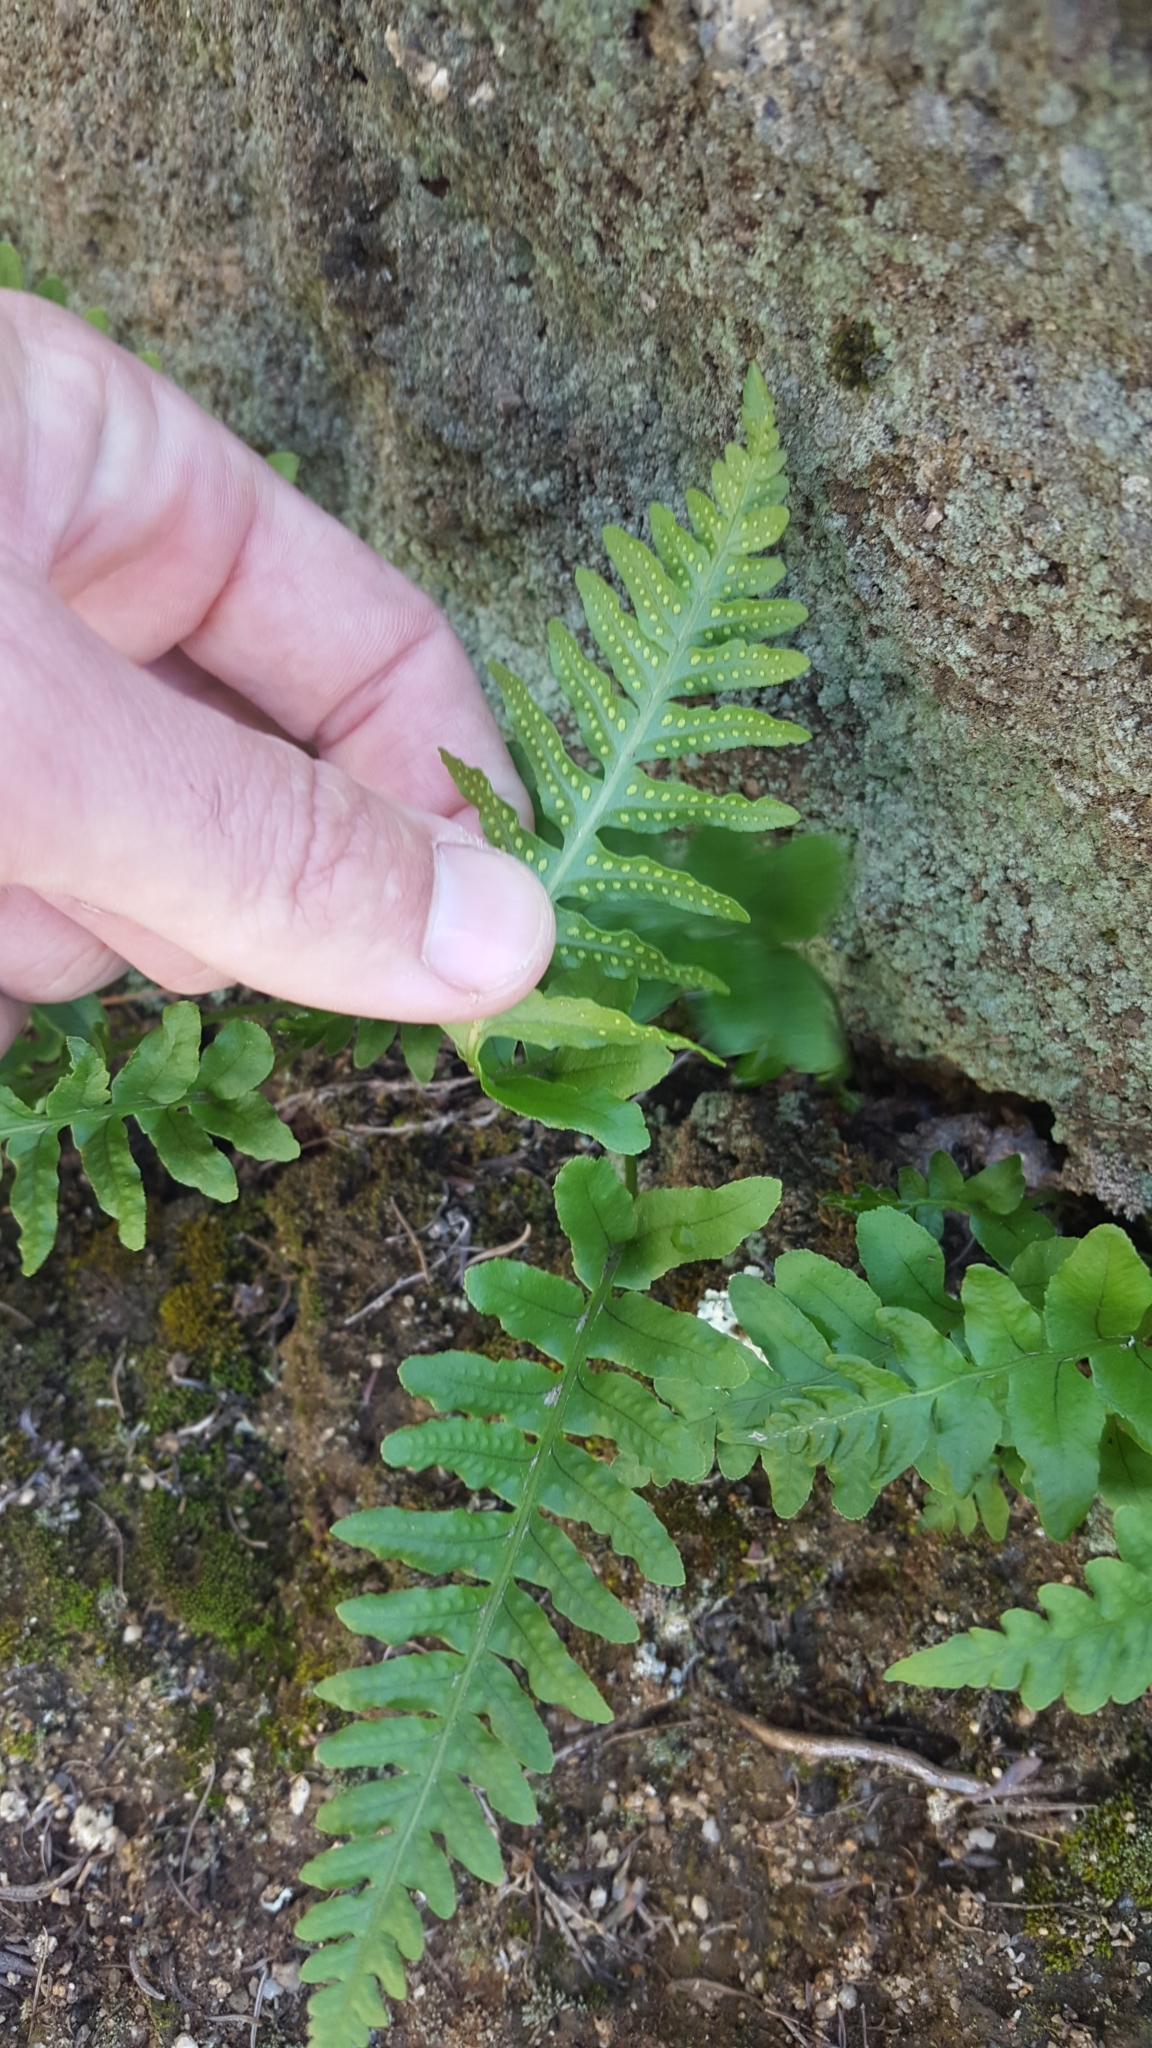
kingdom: Plantae
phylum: Tracheophyta
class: Polypodiopsida
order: Polypodiales
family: Polypodiaceae
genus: Polypodium
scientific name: Polypodium californicum
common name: California polypody
